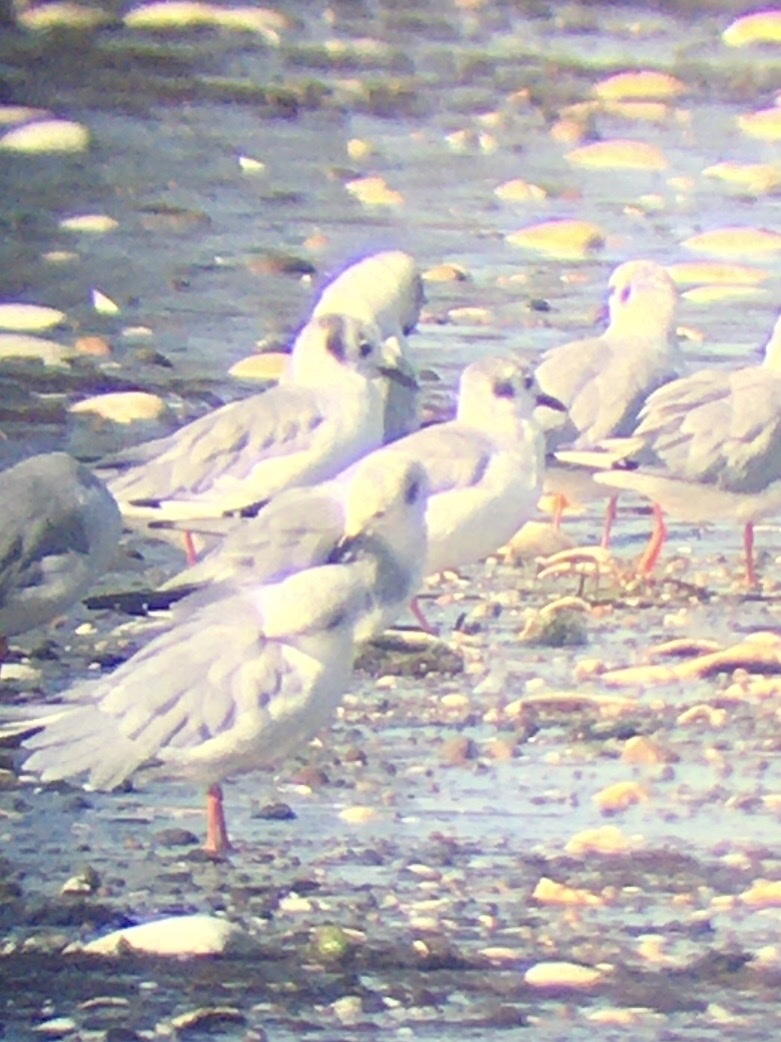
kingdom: Animalia
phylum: Chordata
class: Aves
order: Charadriiformes
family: Laridae
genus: Chroicocephalus
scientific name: Chroicocephalus philadelphia
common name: Bonaparte's gull
